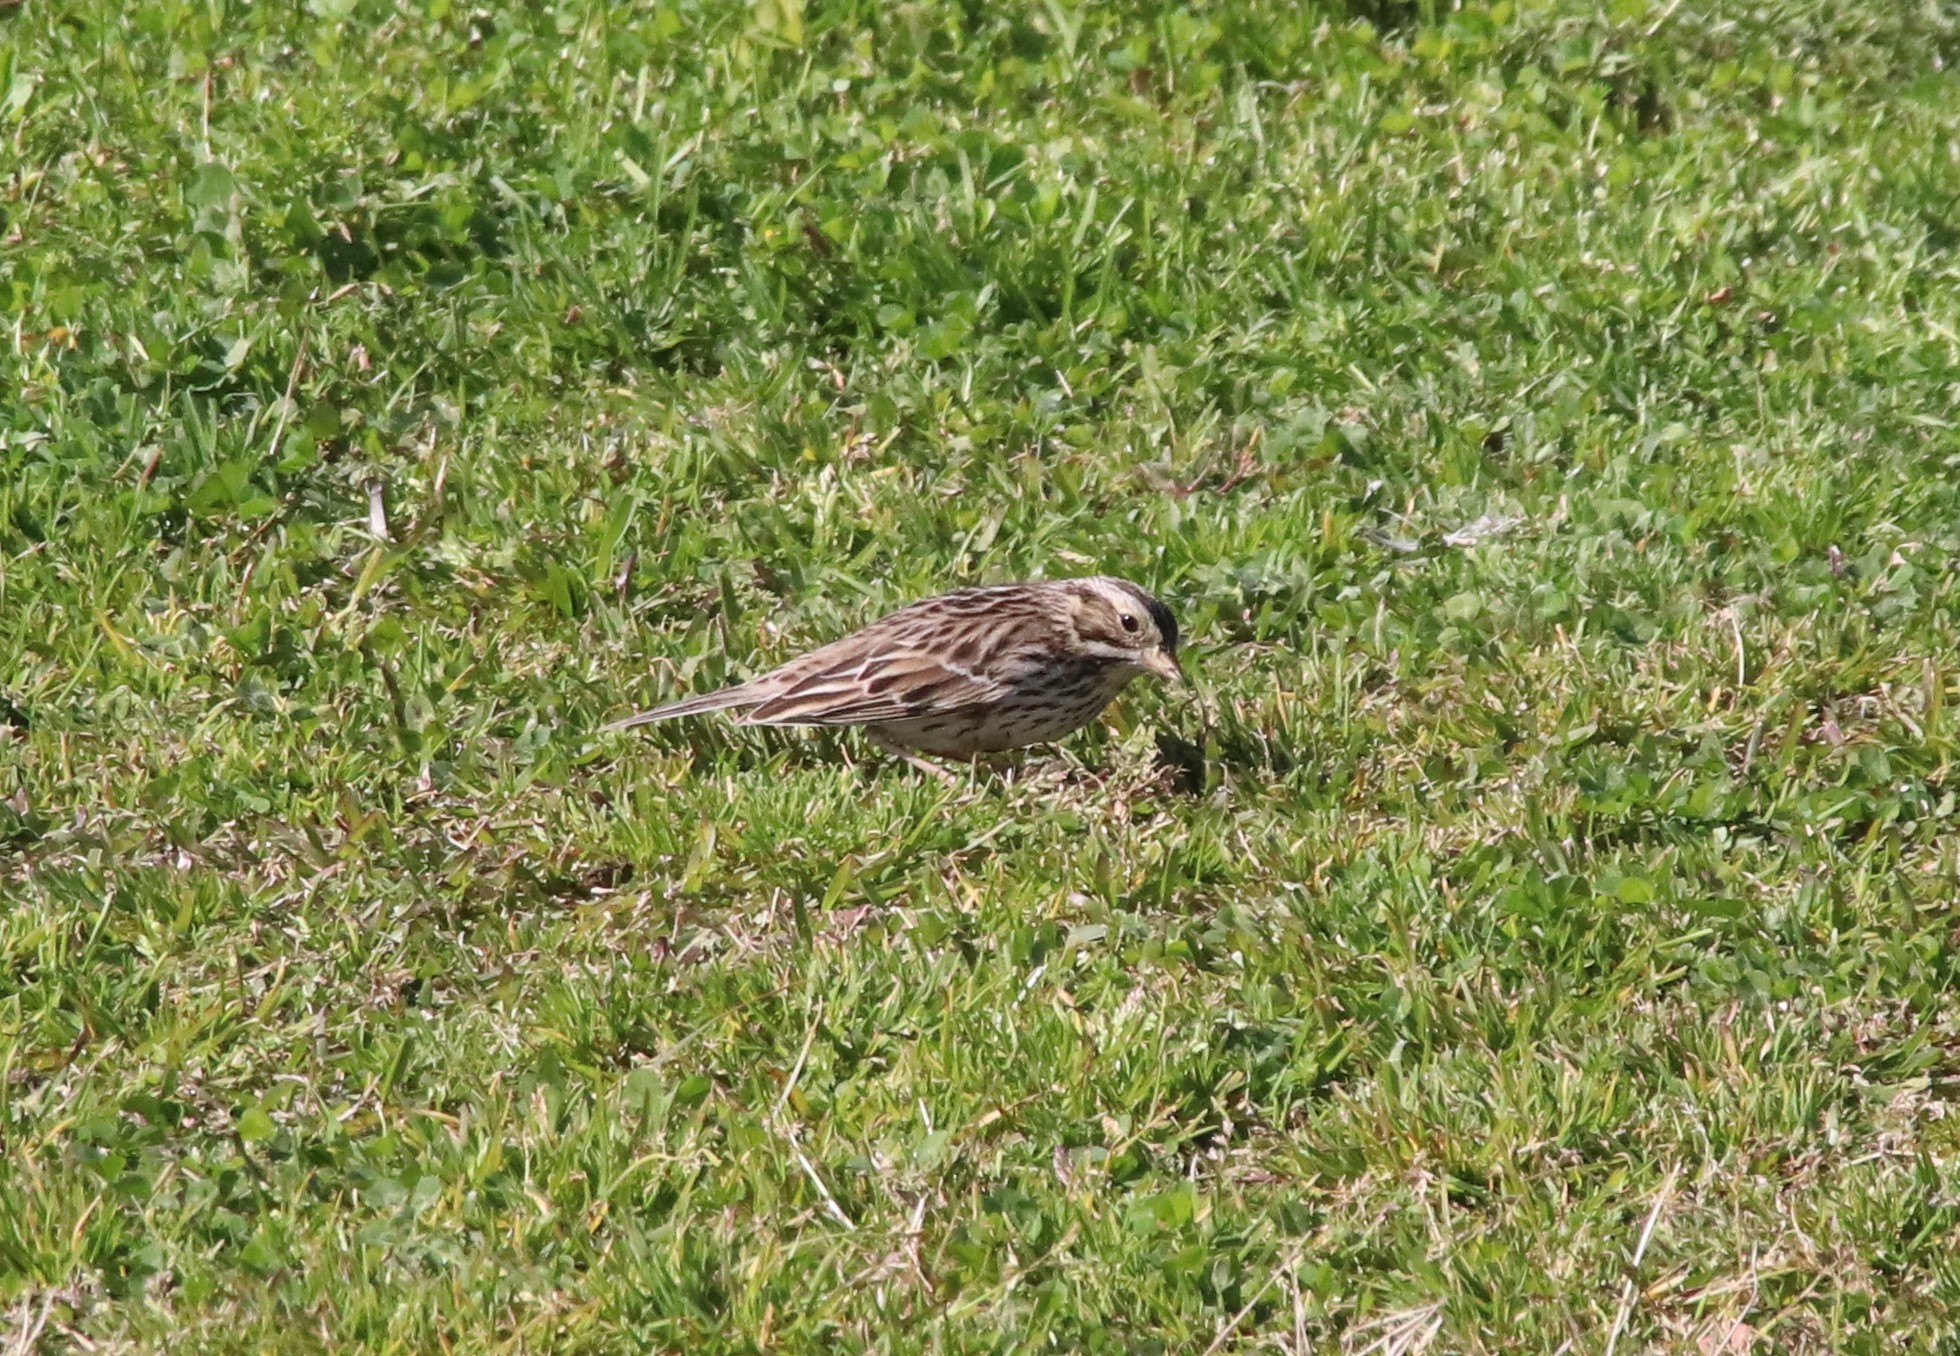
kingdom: Animalia
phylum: Chordata
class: Aves
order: Passeriformes
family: Passerellidae
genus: Passerculus
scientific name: Passerculus sandwichensis
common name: Savannah sparrow
